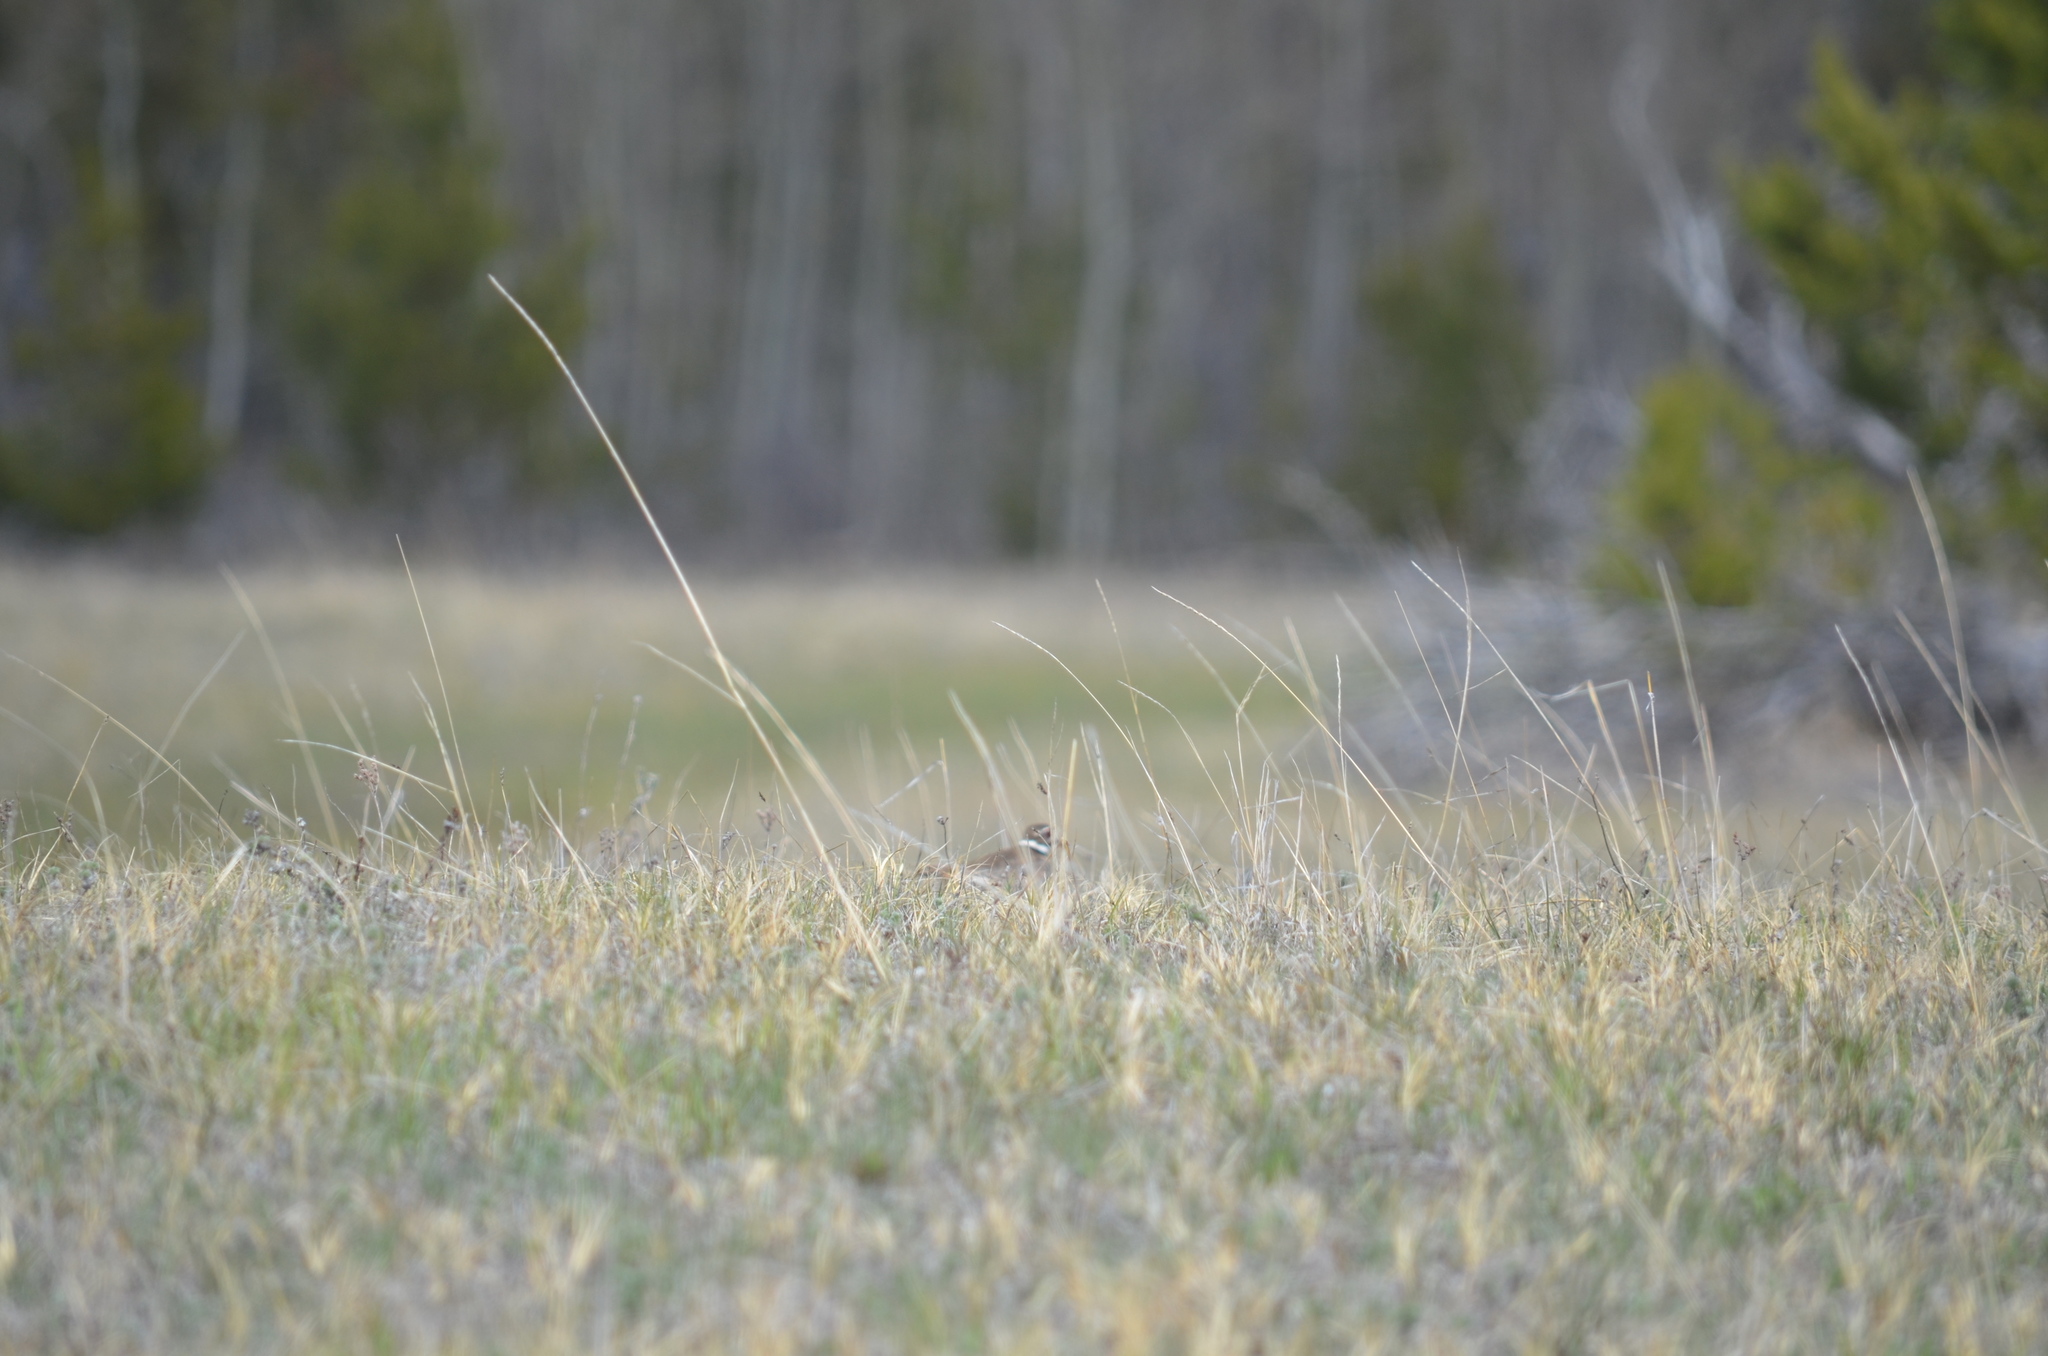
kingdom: Animalia
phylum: Chordata
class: Aves
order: Charadriiformes
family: Charadriidae
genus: Charadrius
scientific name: Charadrius vociferus
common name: Killdeer
